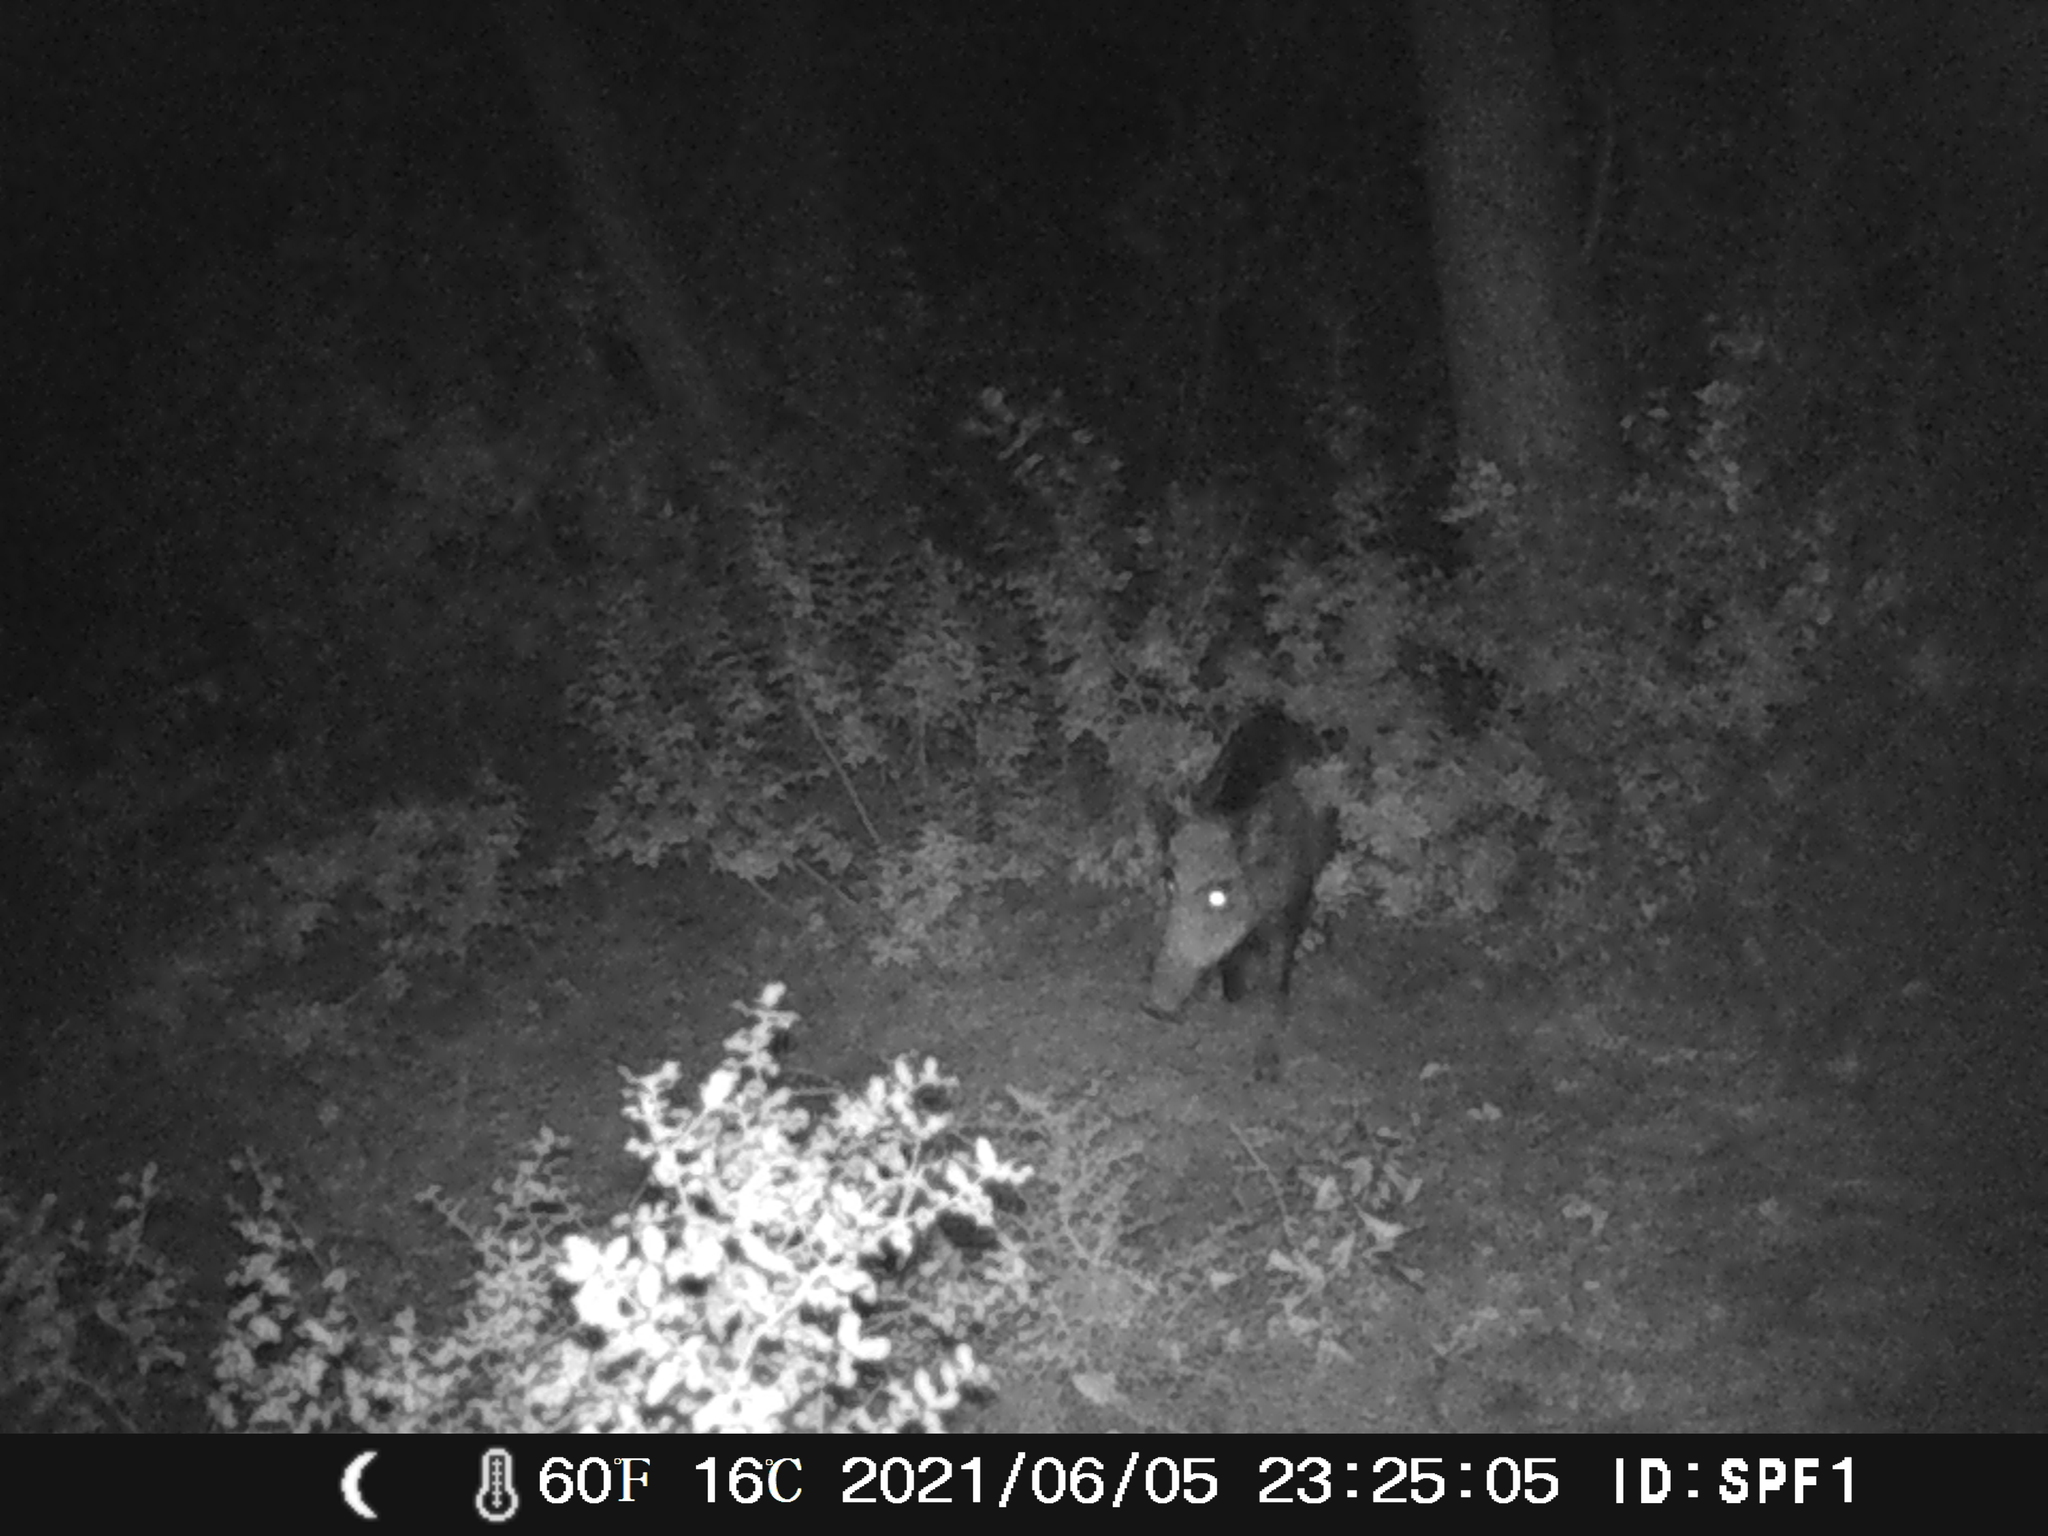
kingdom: Animalia
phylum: Chordata
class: Mammalia
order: Artiodactyla
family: Suidae
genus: Sus
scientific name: Sus scrofa
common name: Wild boar
